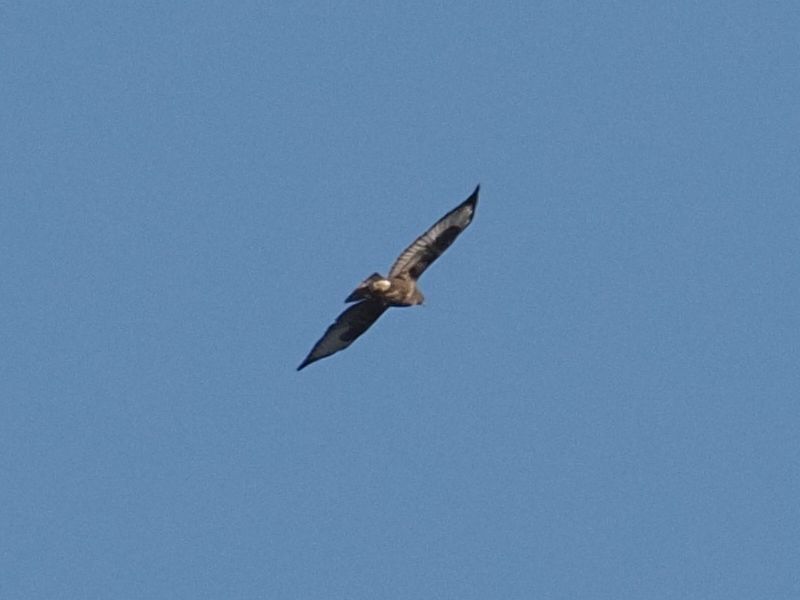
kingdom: Animalia
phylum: Chordata
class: Aves
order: Accipitriformes
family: Accipitridae
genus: Buteo
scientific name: Buteo buteo
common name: Common buzzard
